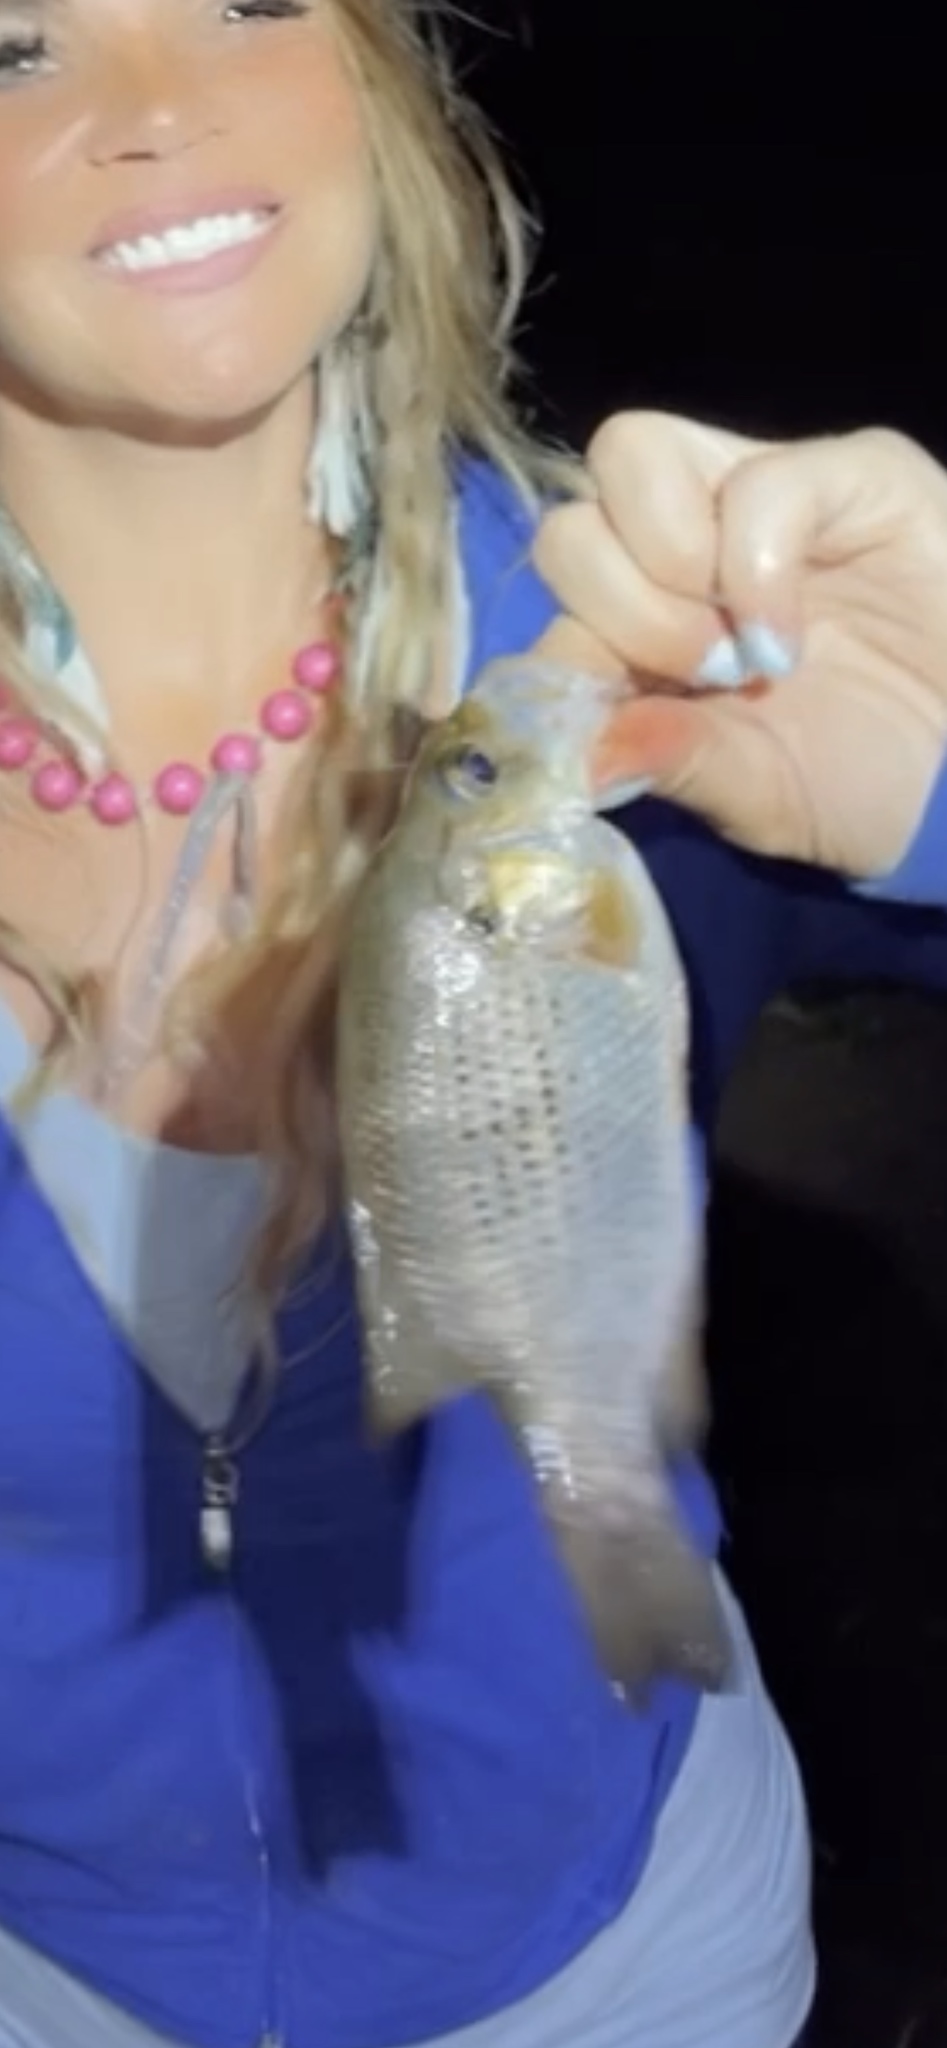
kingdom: Animalia
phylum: Chordata
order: Perciformes
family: Centrarchidae
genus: Ambloplites
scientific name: Ambloplites rupestris
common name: Rock bass
